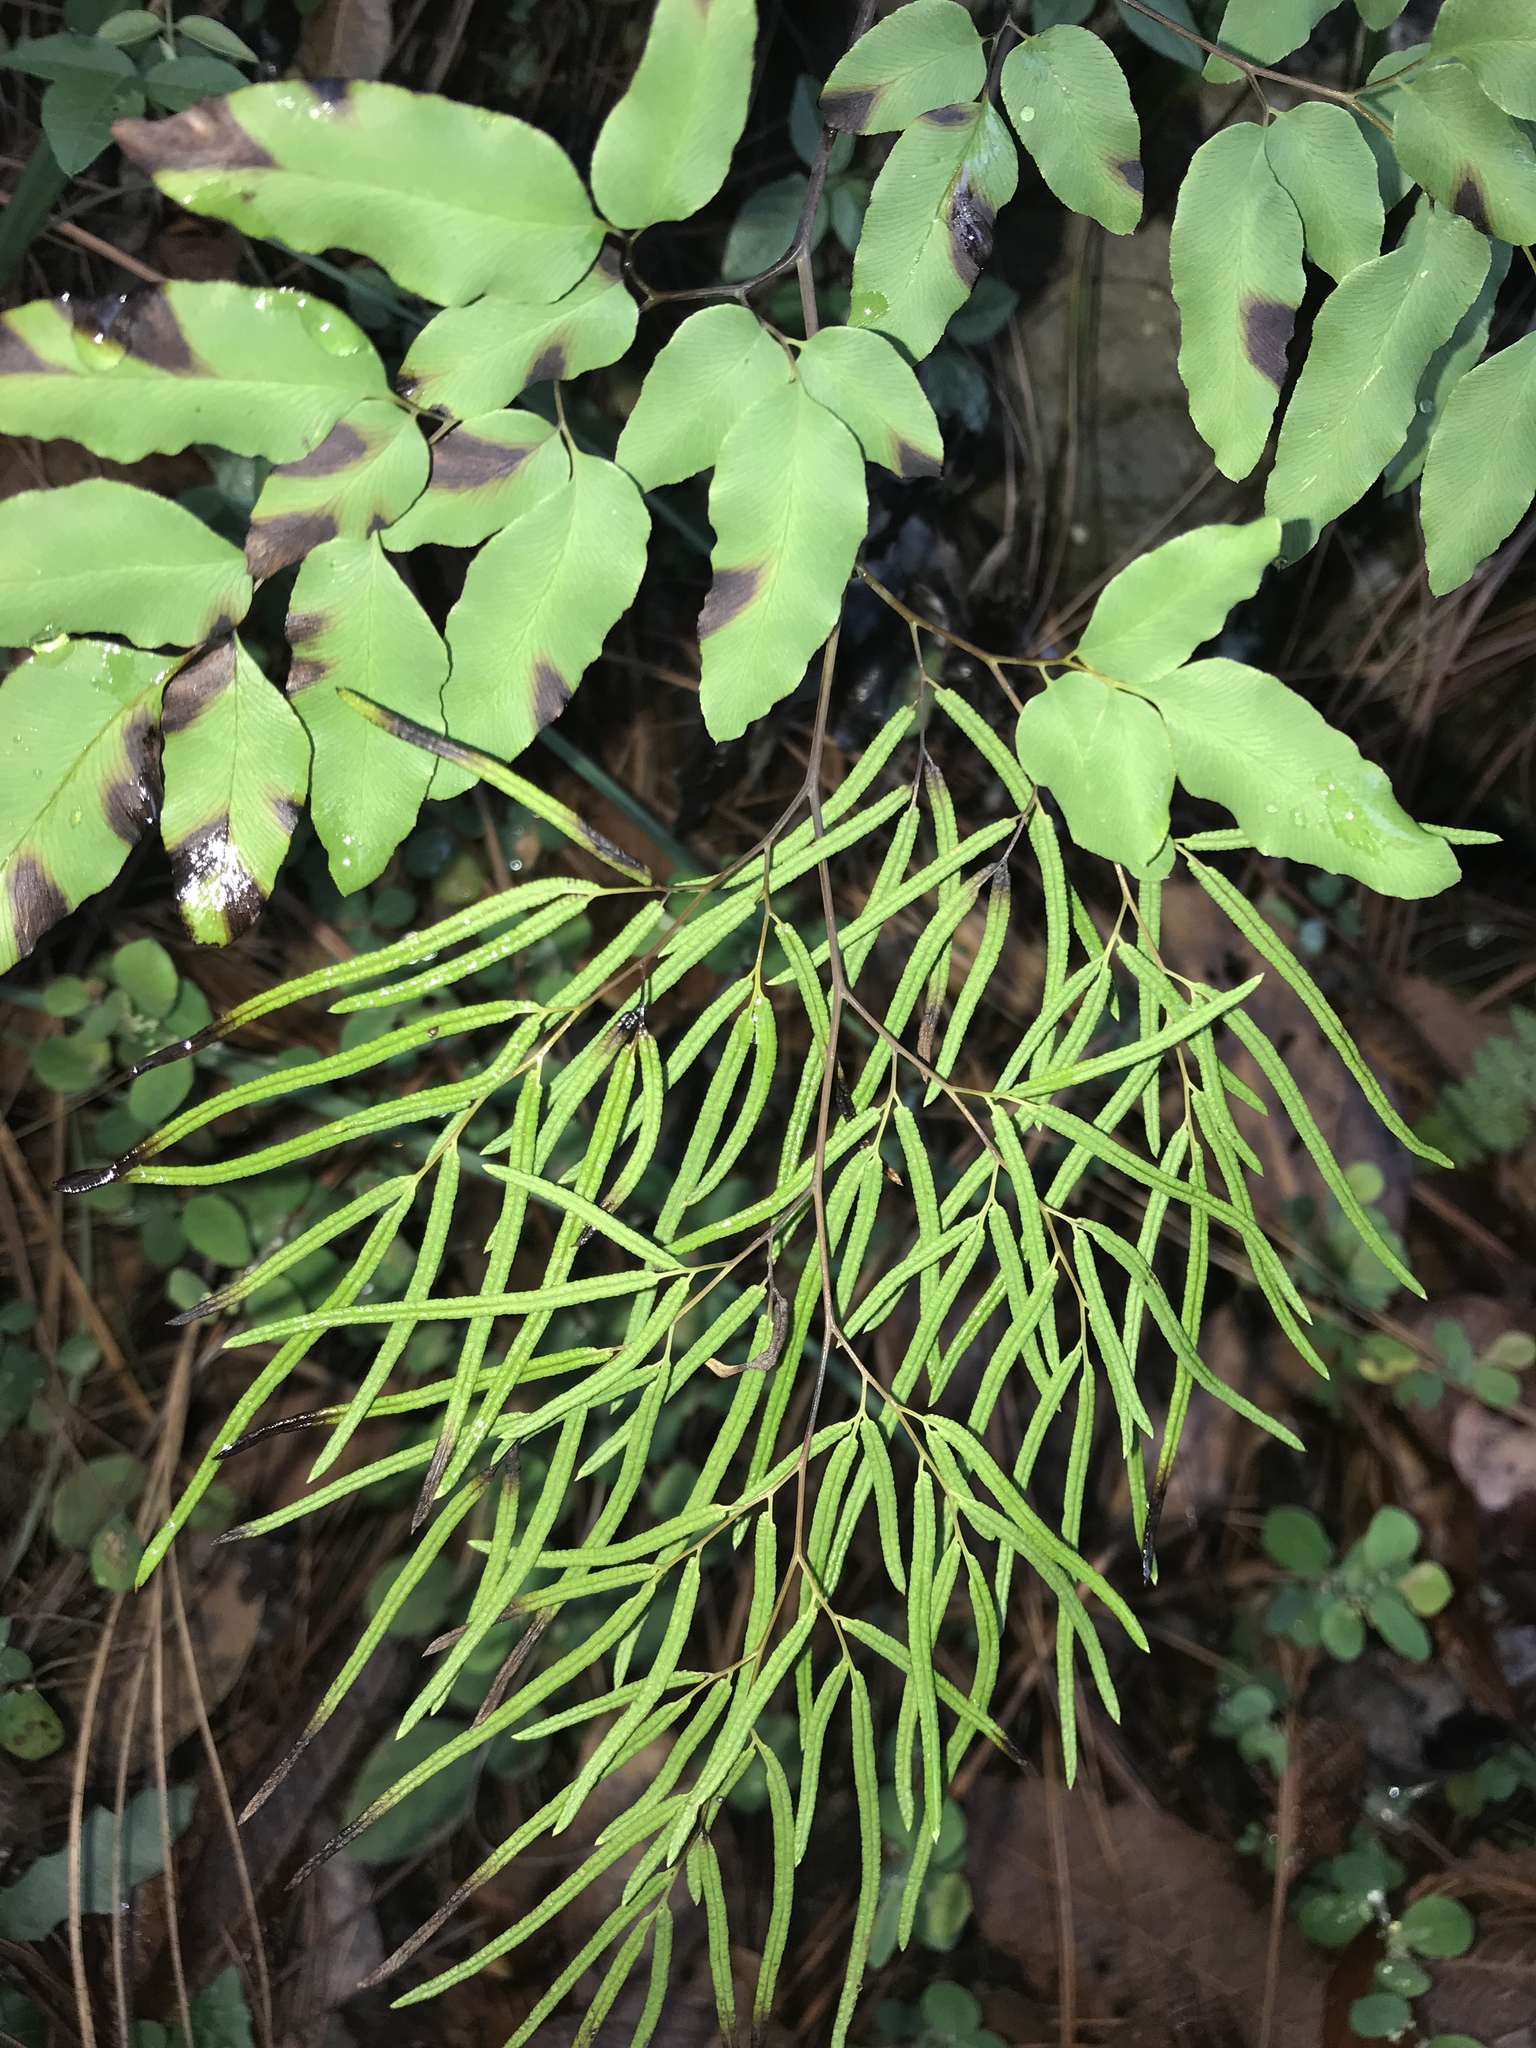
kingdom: Plantae
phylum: Tracheophyta
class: Polypodiopsida
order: Polypodiales
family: Pteridaceae
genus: Llavea
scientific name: Llavea cordifolia
